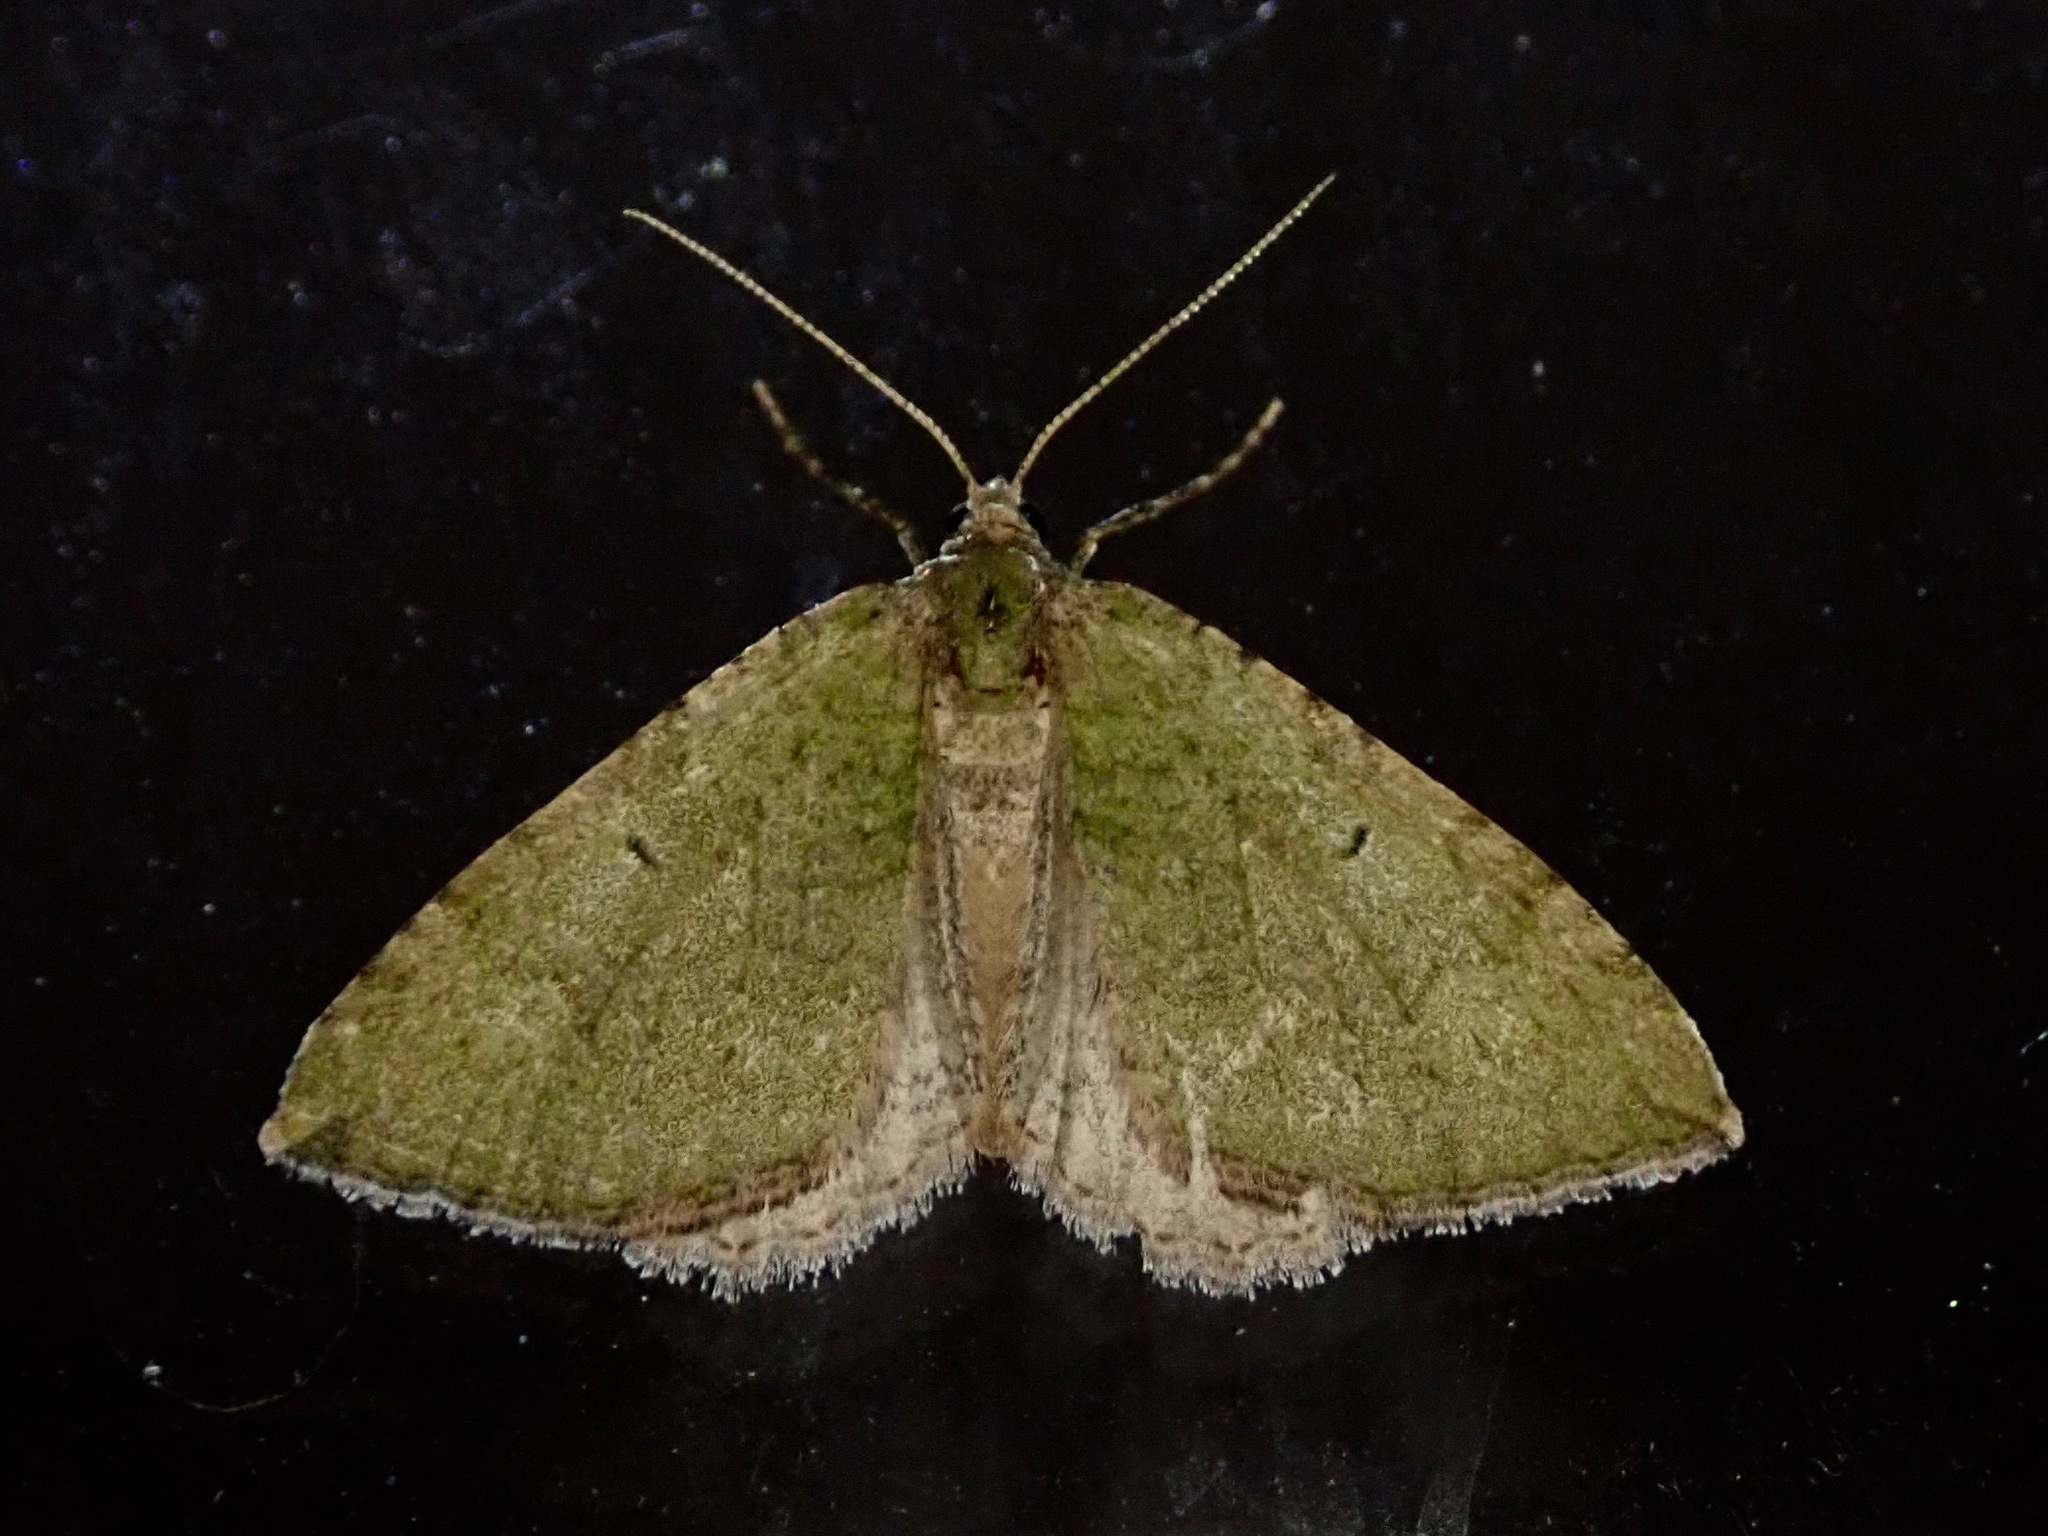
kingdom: Animalia
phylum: Arthropoda
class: Insecta
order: Lepidoptera
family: Geometridae
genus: Epyaxa
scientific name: Epyaxa rosearia
